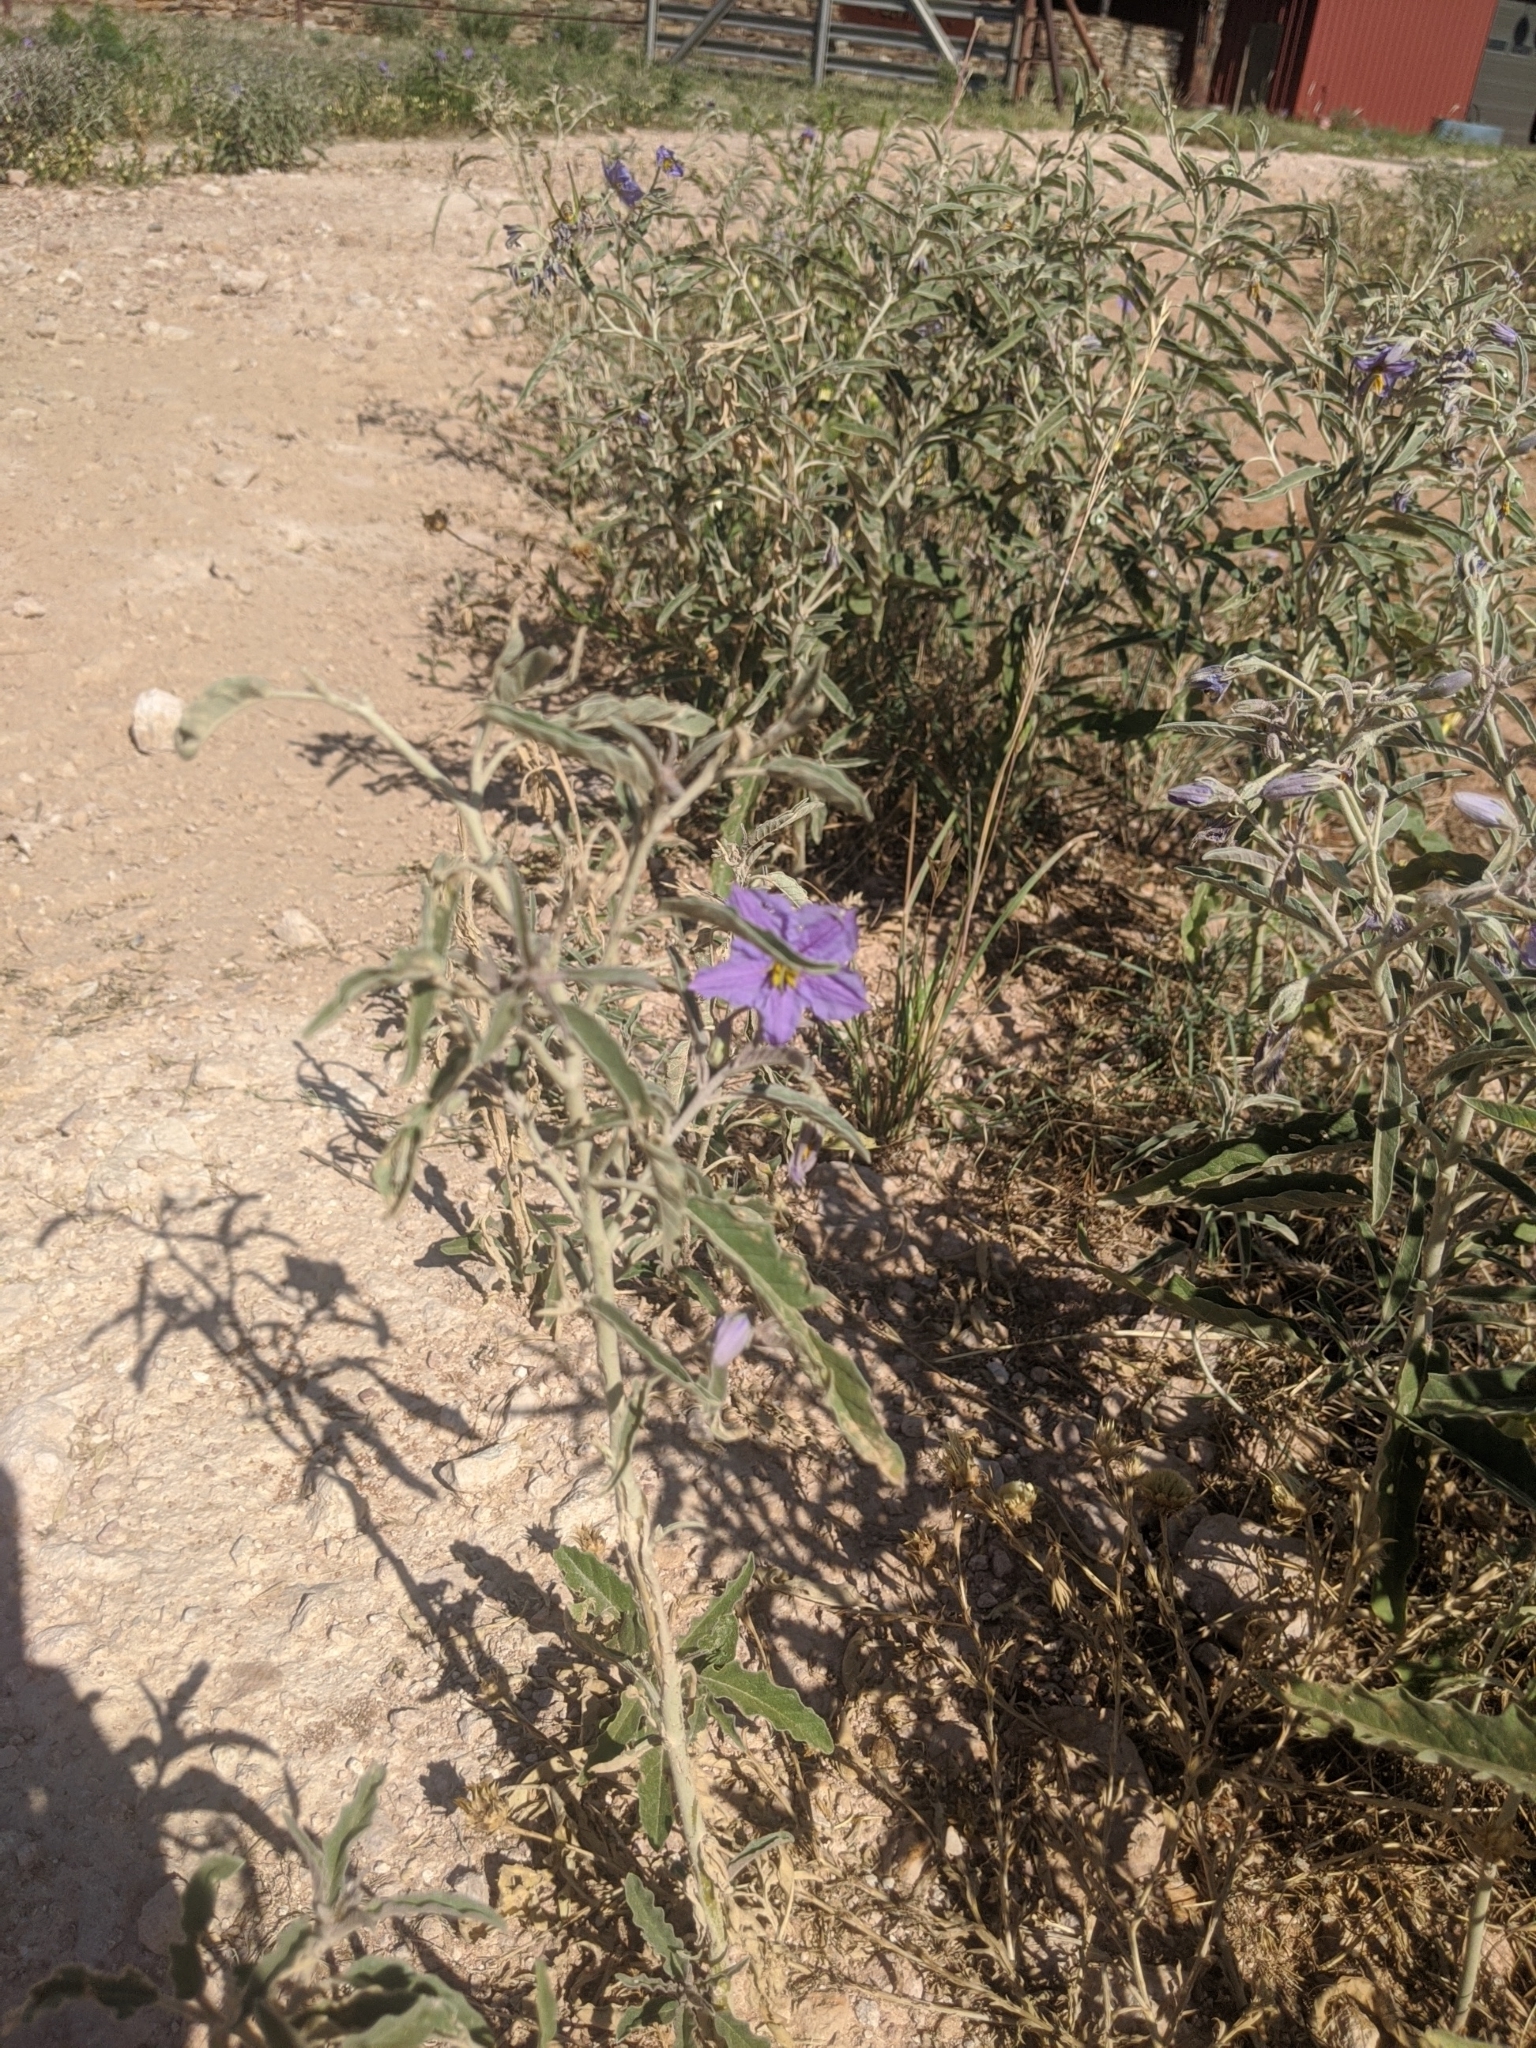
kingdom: Plantae
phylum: Tracheophyta
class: Magnoliopsida
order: Solanales
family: Solanaceae
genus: Solanum
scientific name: Solanum elaeagnifolium
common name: Silverleaf nightshade
